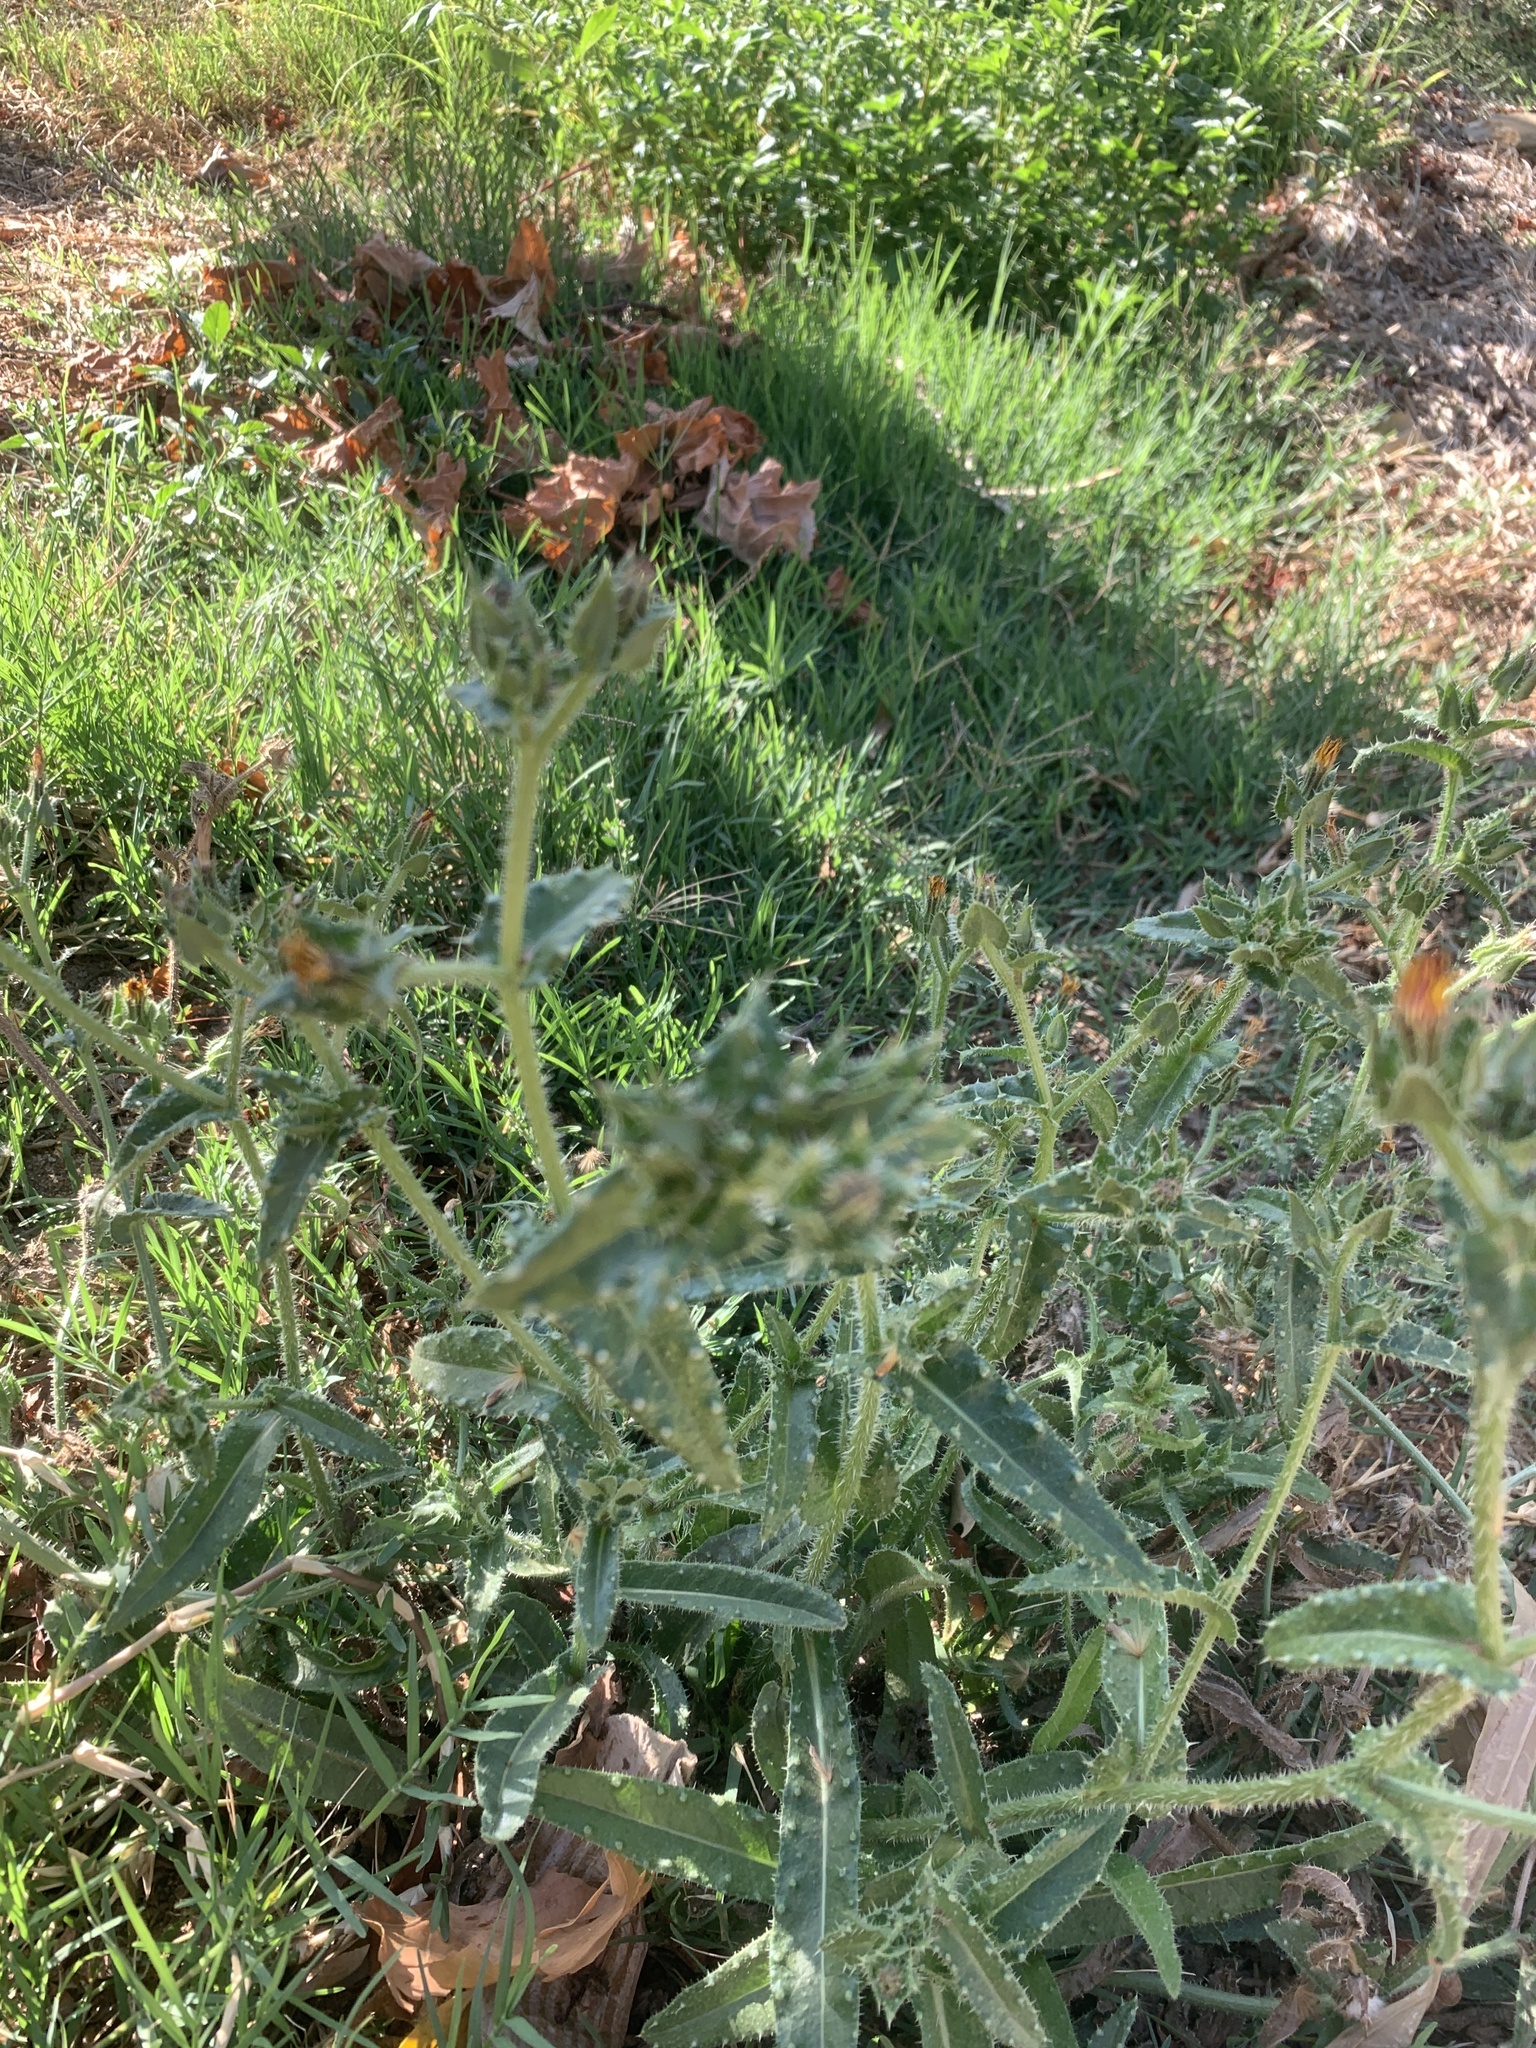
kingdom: Plantae
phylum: Tracheophyta
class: Magnoliopsida
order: Asterales
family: Asteraceae
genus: Helminthotheca
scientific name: Helminthotheca echioides
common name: Ox-tongue
